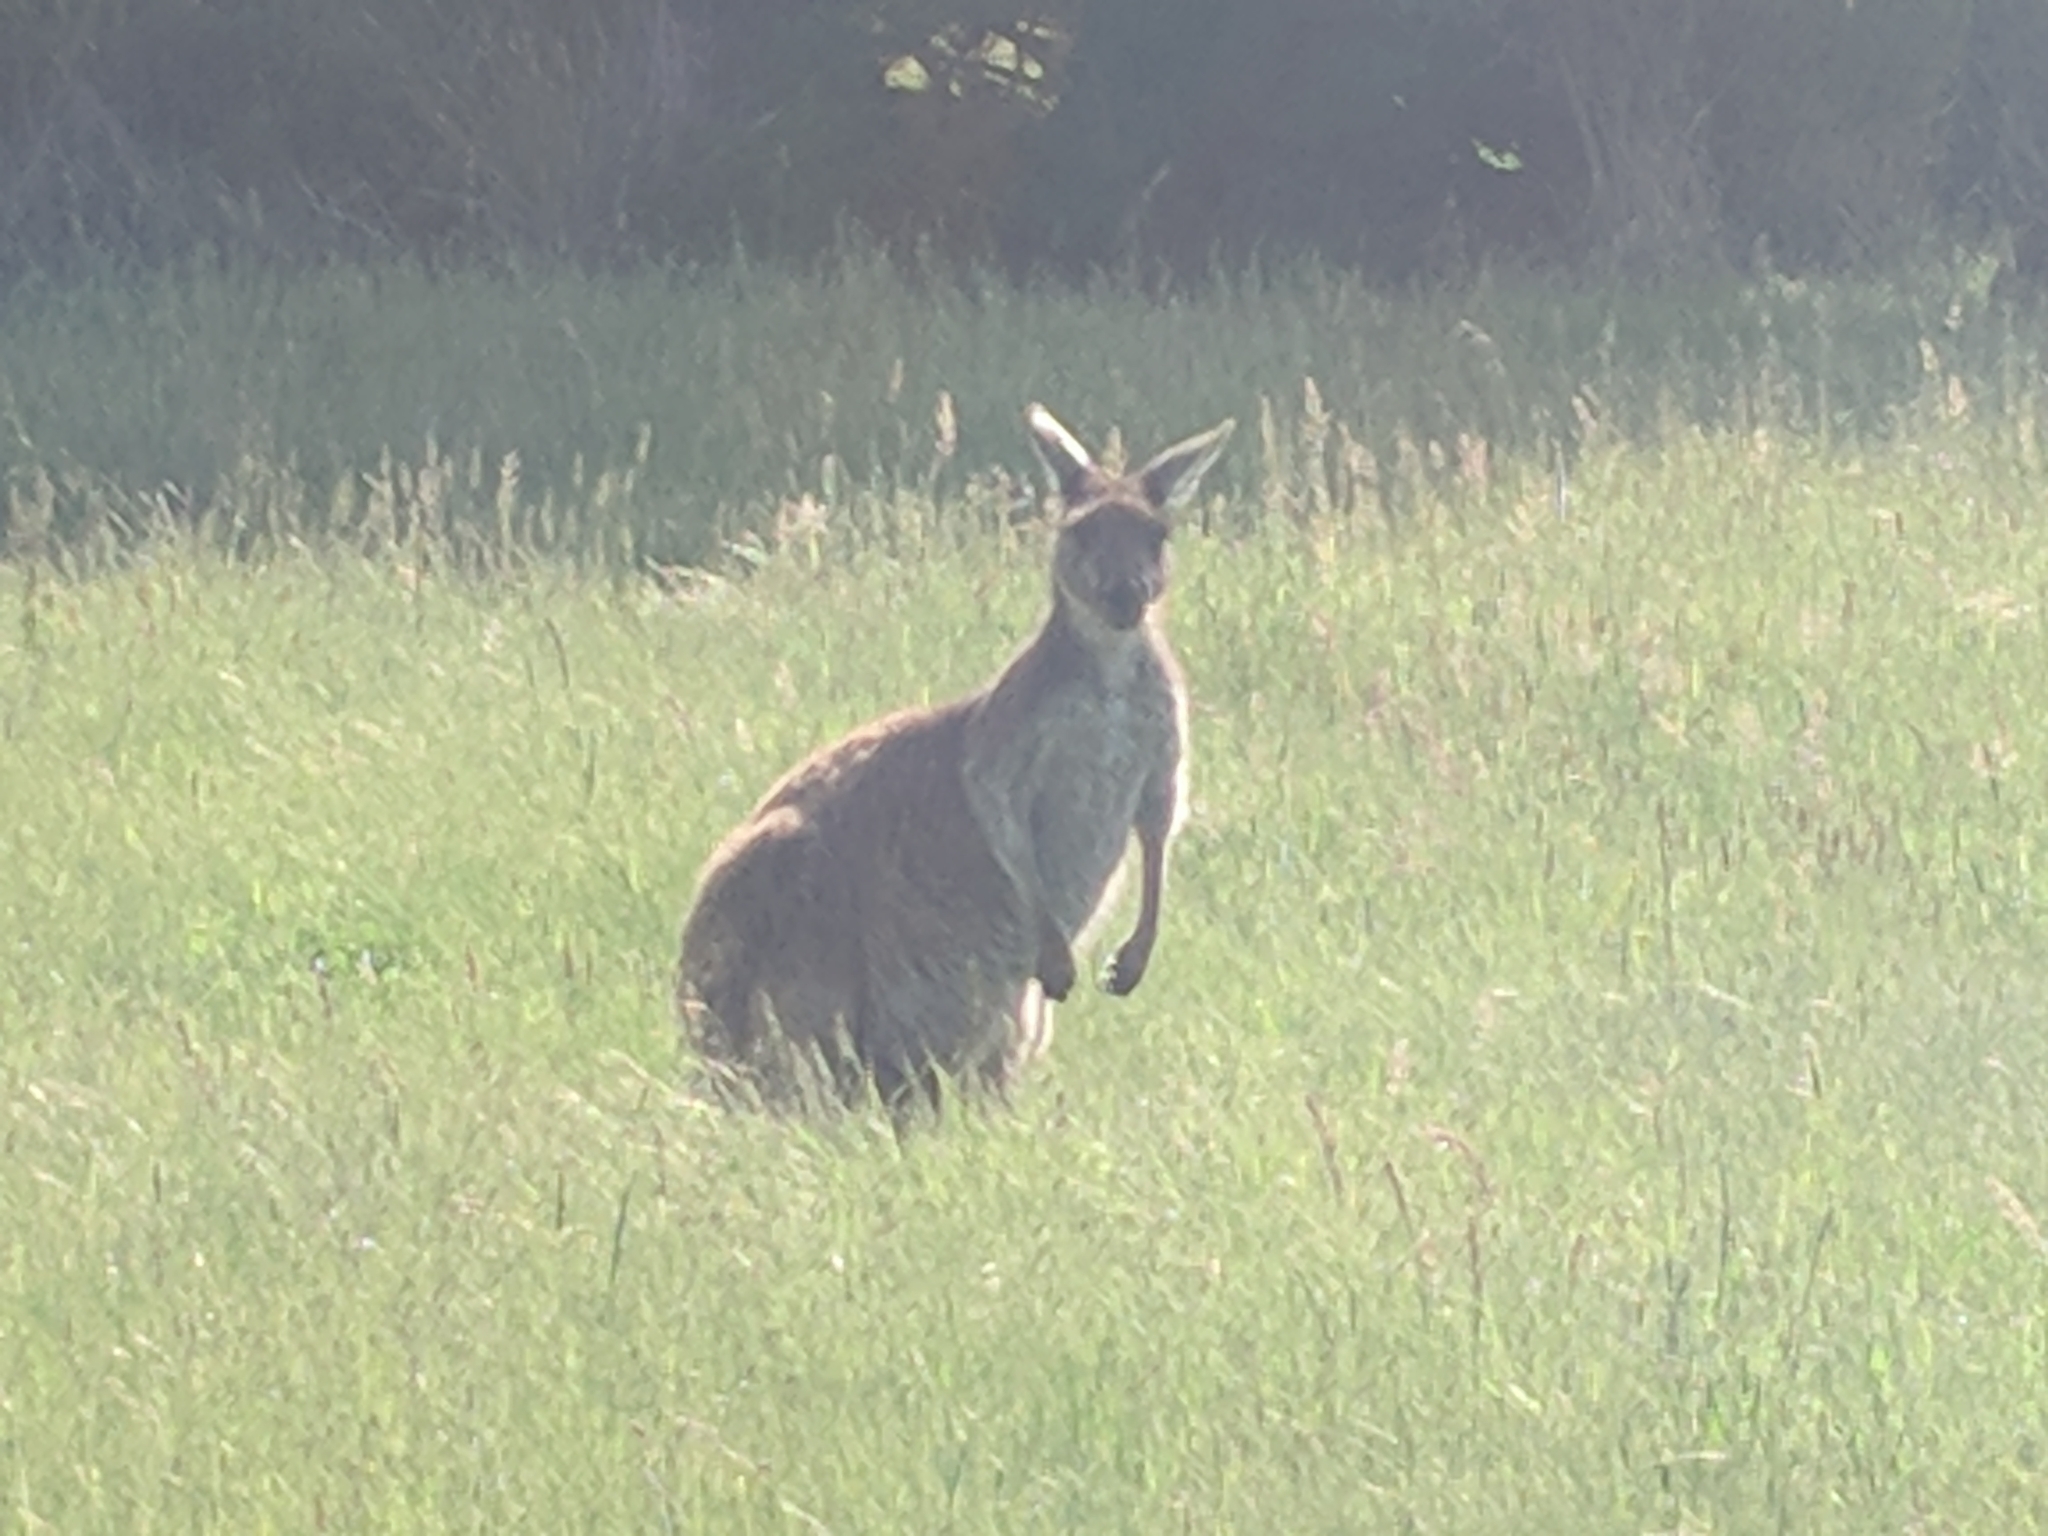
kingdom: Animalia
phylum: Chordata
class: Mammalia
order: Diprotodontia
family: Macropodidae
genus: Macropus
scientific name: Macropus fuliginosus
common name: Western grey kangaroo
